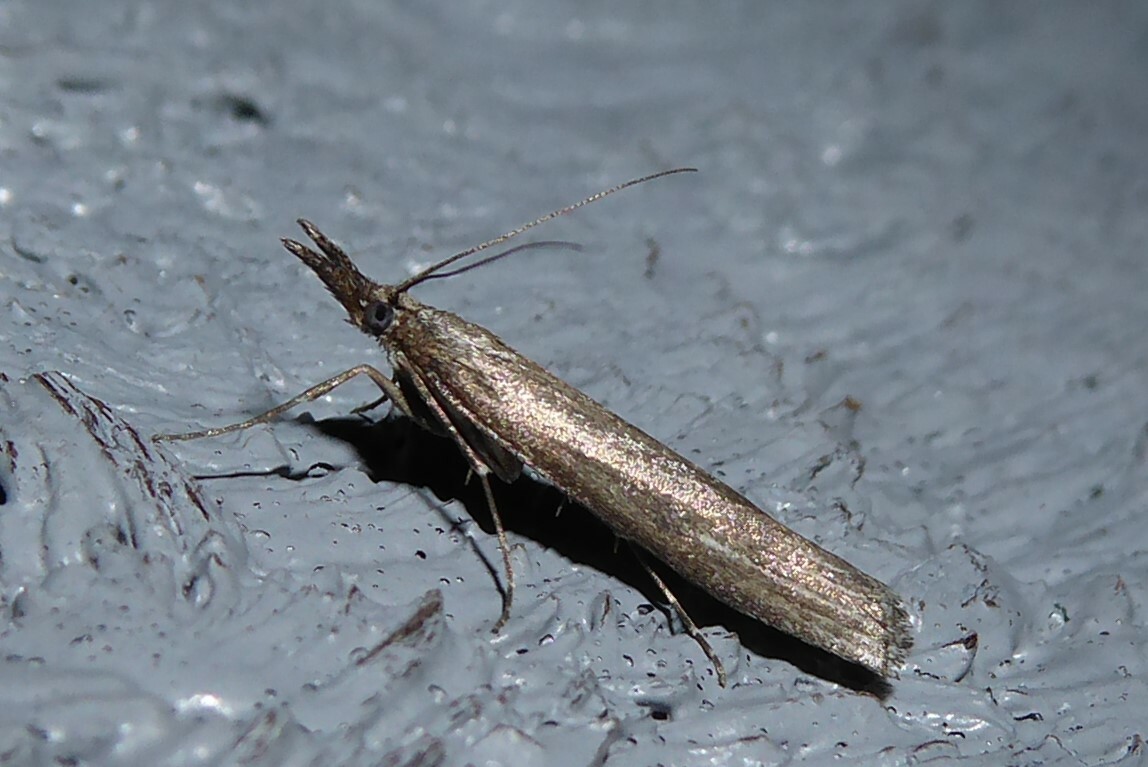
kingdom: Animalia
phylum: Arthropoda
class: Insecta
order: Lepidoptera
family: Crambidae
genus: Orocrambus
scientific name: Orocrambus cyclopicus
